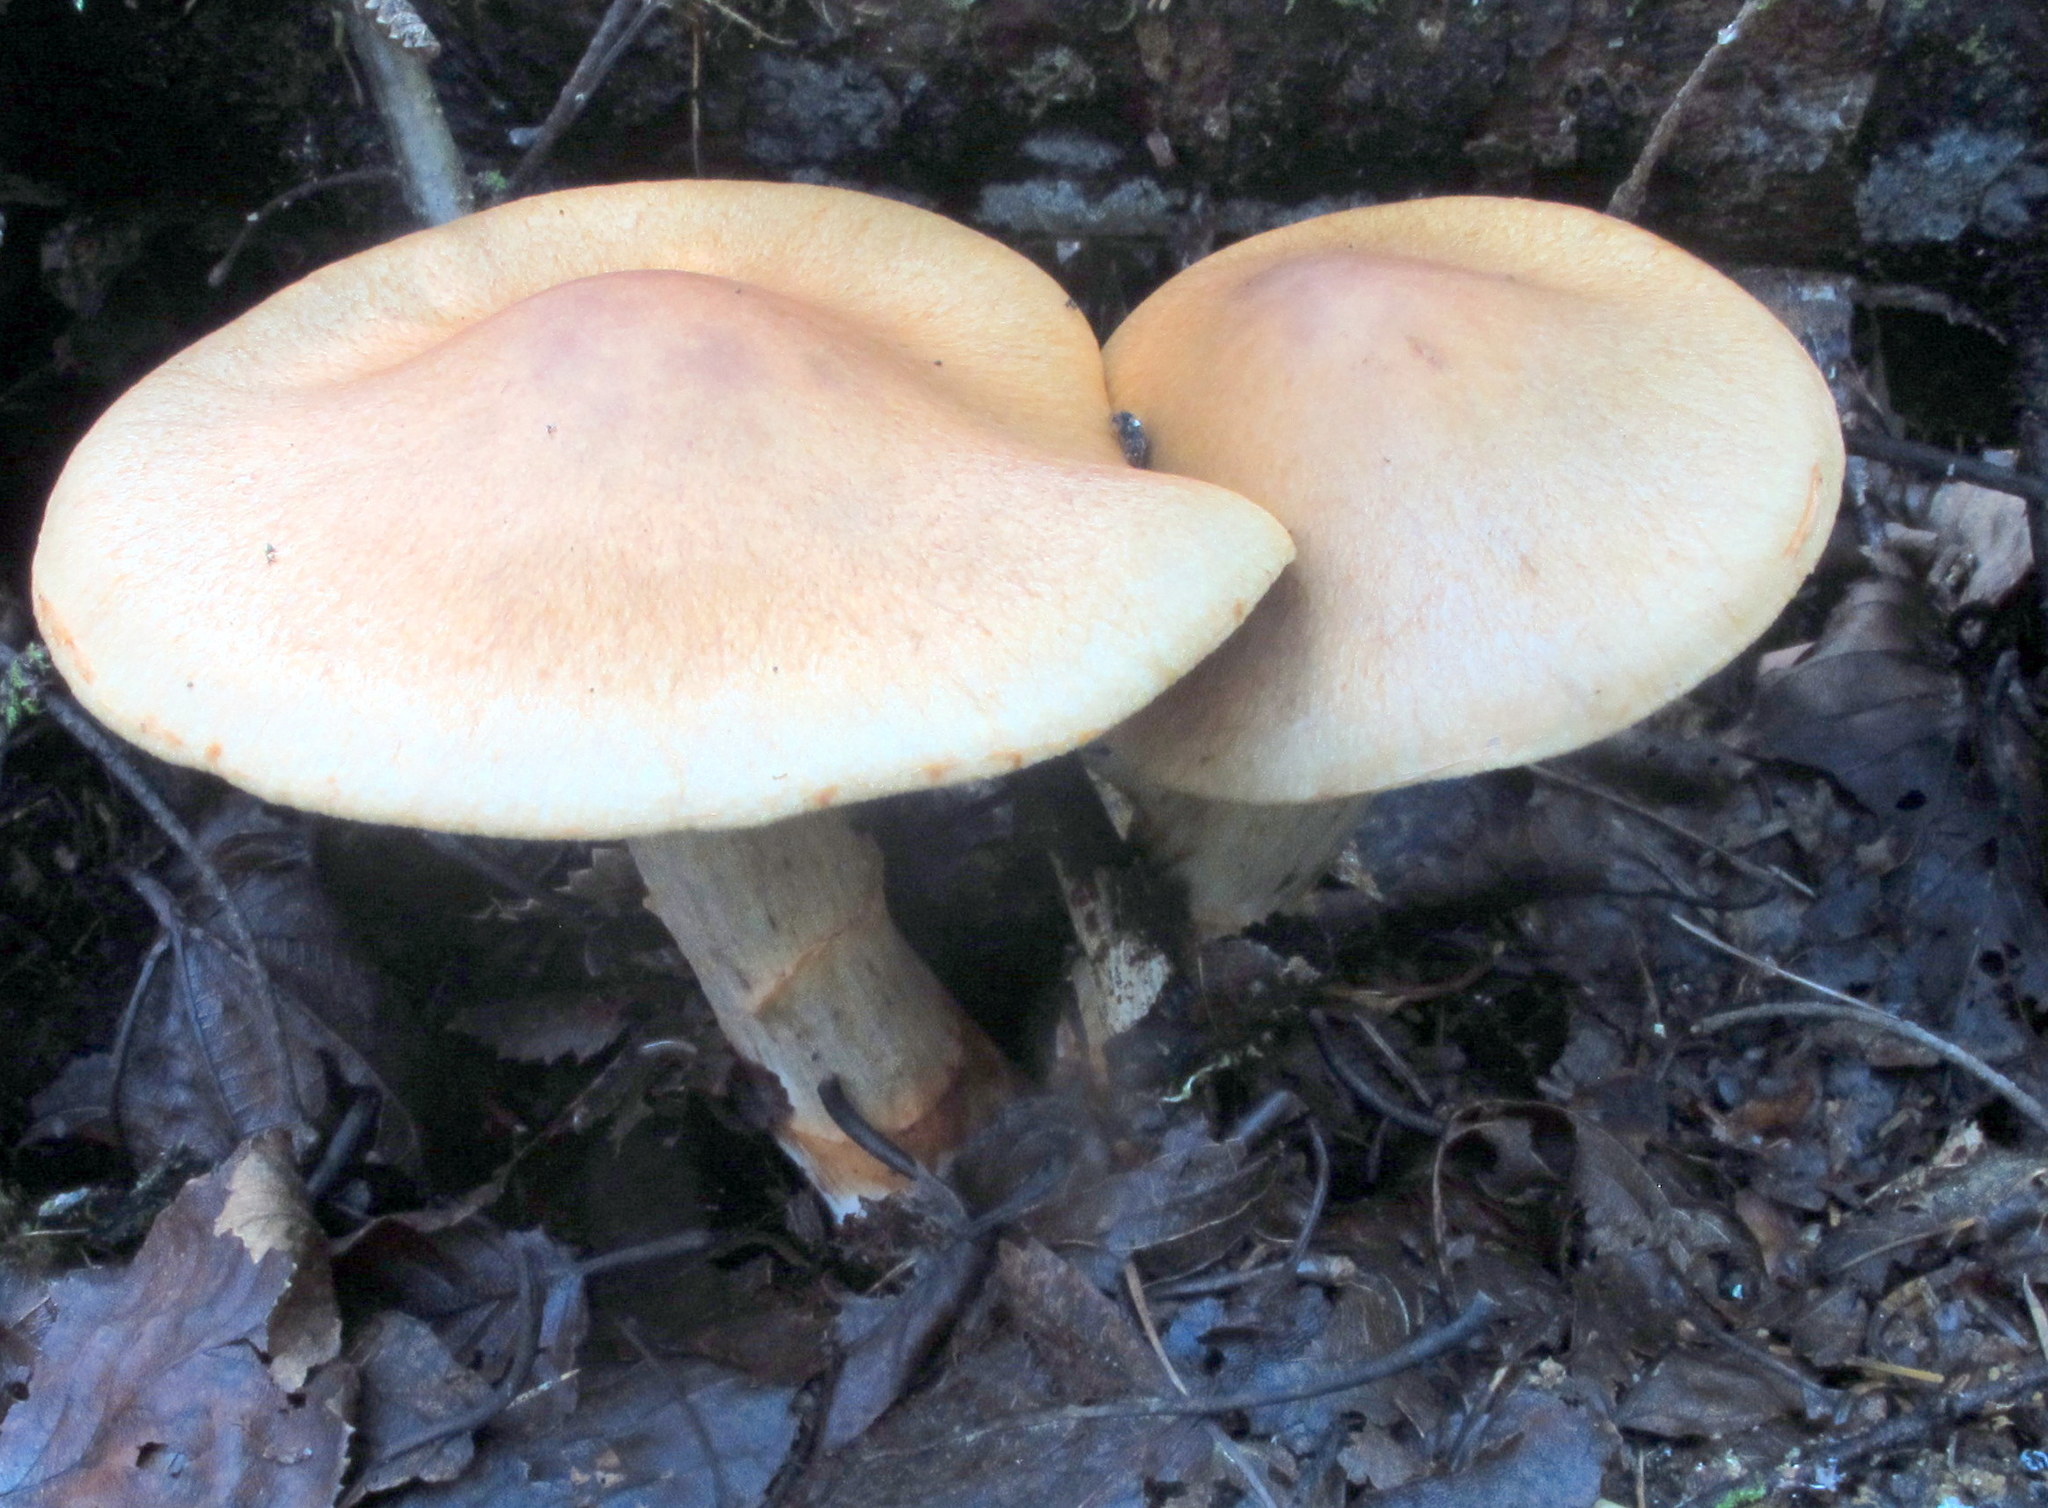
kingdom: Fungi
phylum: Basidiomycota
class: Agaricomycetes
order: Agaricales
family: Cortinariaceae
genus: Cortinarius
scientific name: Cortinarius armillatus
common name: Red banded webcap
